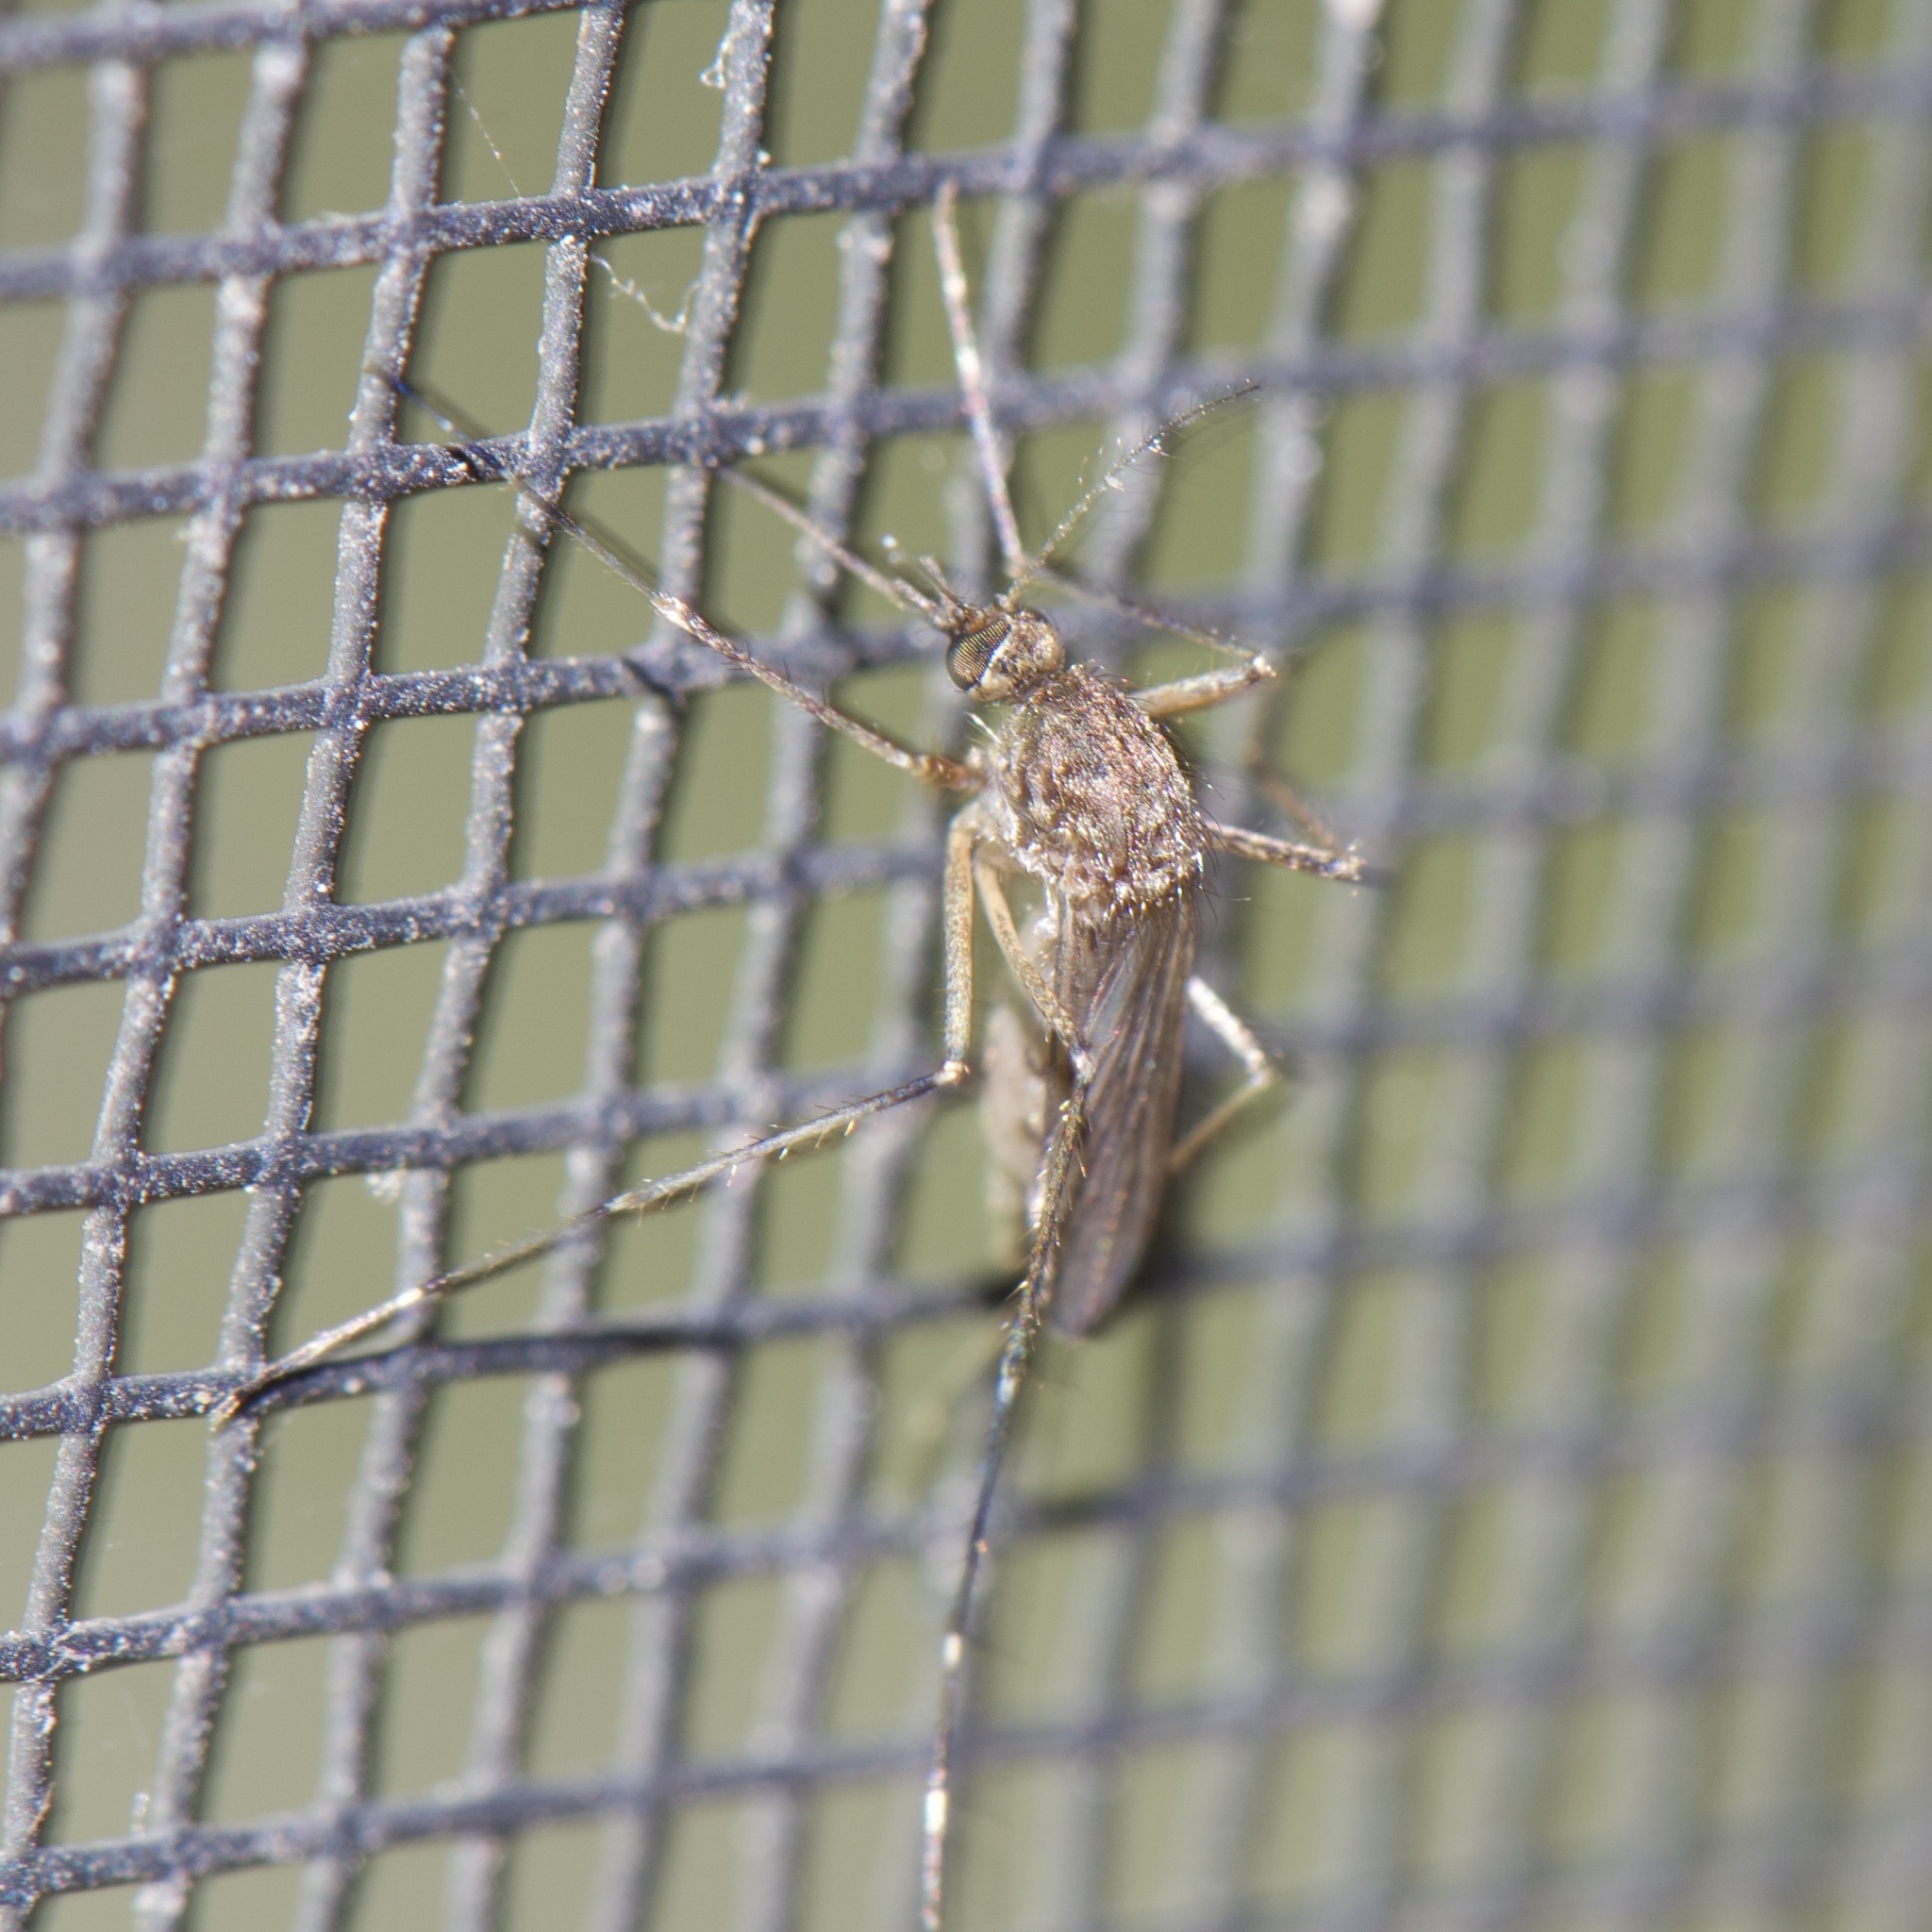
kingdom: Animalia
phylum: Arthropoda
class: Insecta
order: Diptera
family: Culicidae
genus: Aedes
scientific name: Aedes vexans
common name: Inland floodwater mosquito
